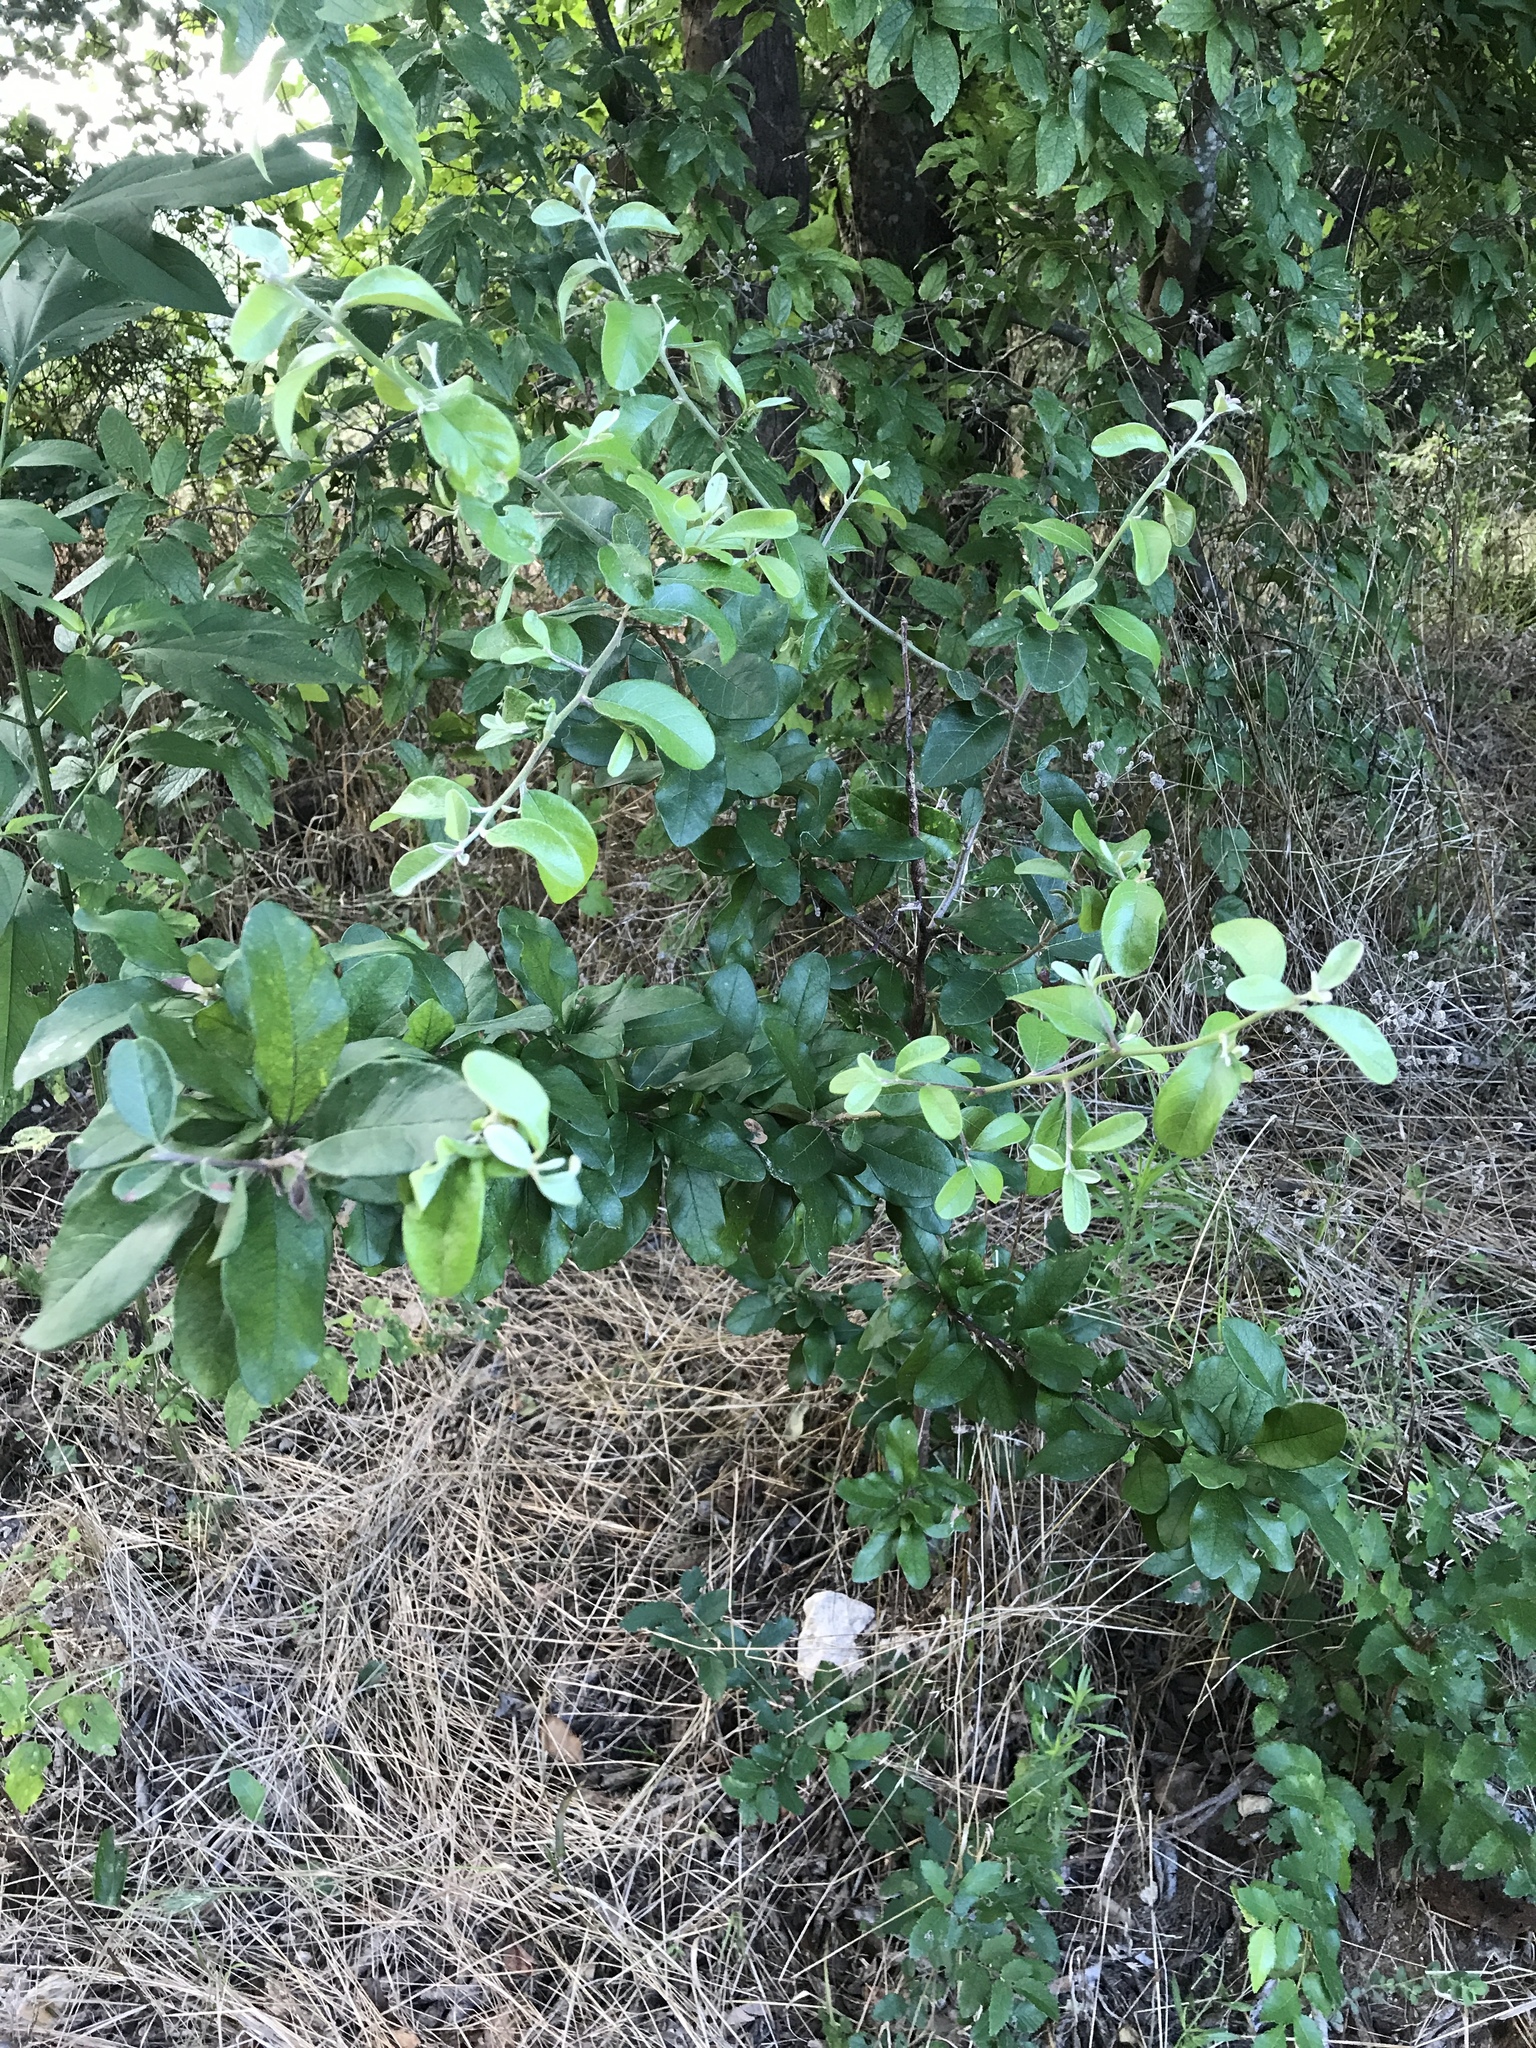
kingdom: Plantae
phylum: Tracheophyta
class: Magnoliopsida
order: Ericales
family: Sapotaceae
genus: Sideroxylon
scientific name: Sideroxylon lanuginosum
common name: Chittamwood
